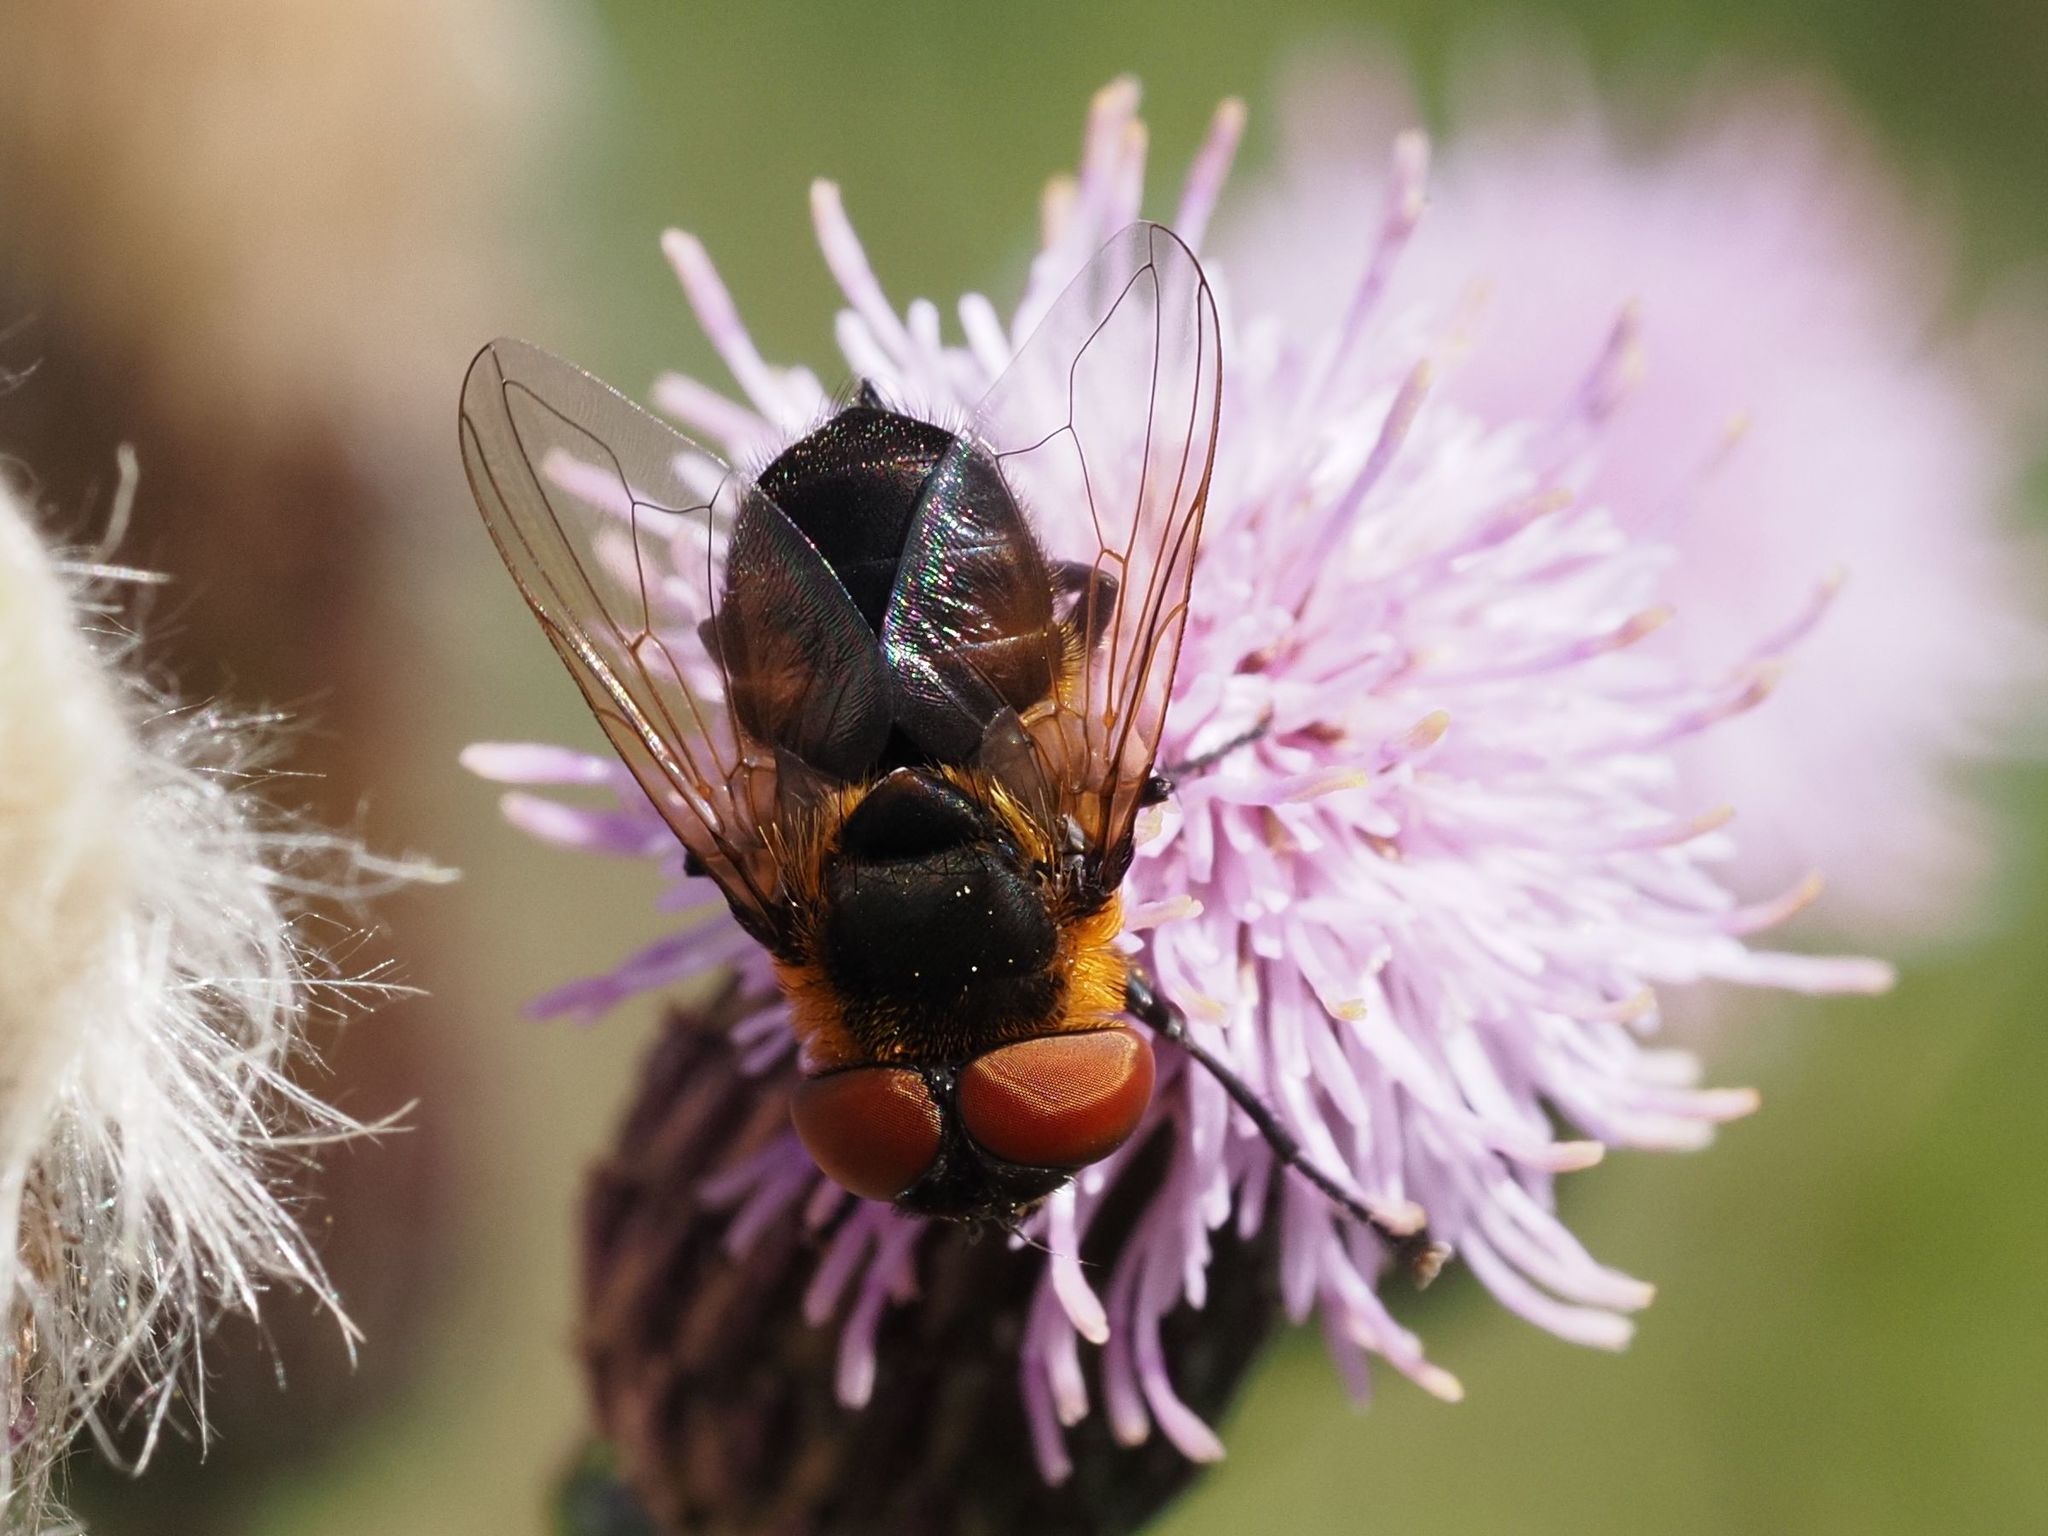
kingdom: Animalia
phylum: Arthropoda
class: Insecta
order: Diptera
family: Tachinidae
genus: Phasia
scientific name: Phasia hemiptera
